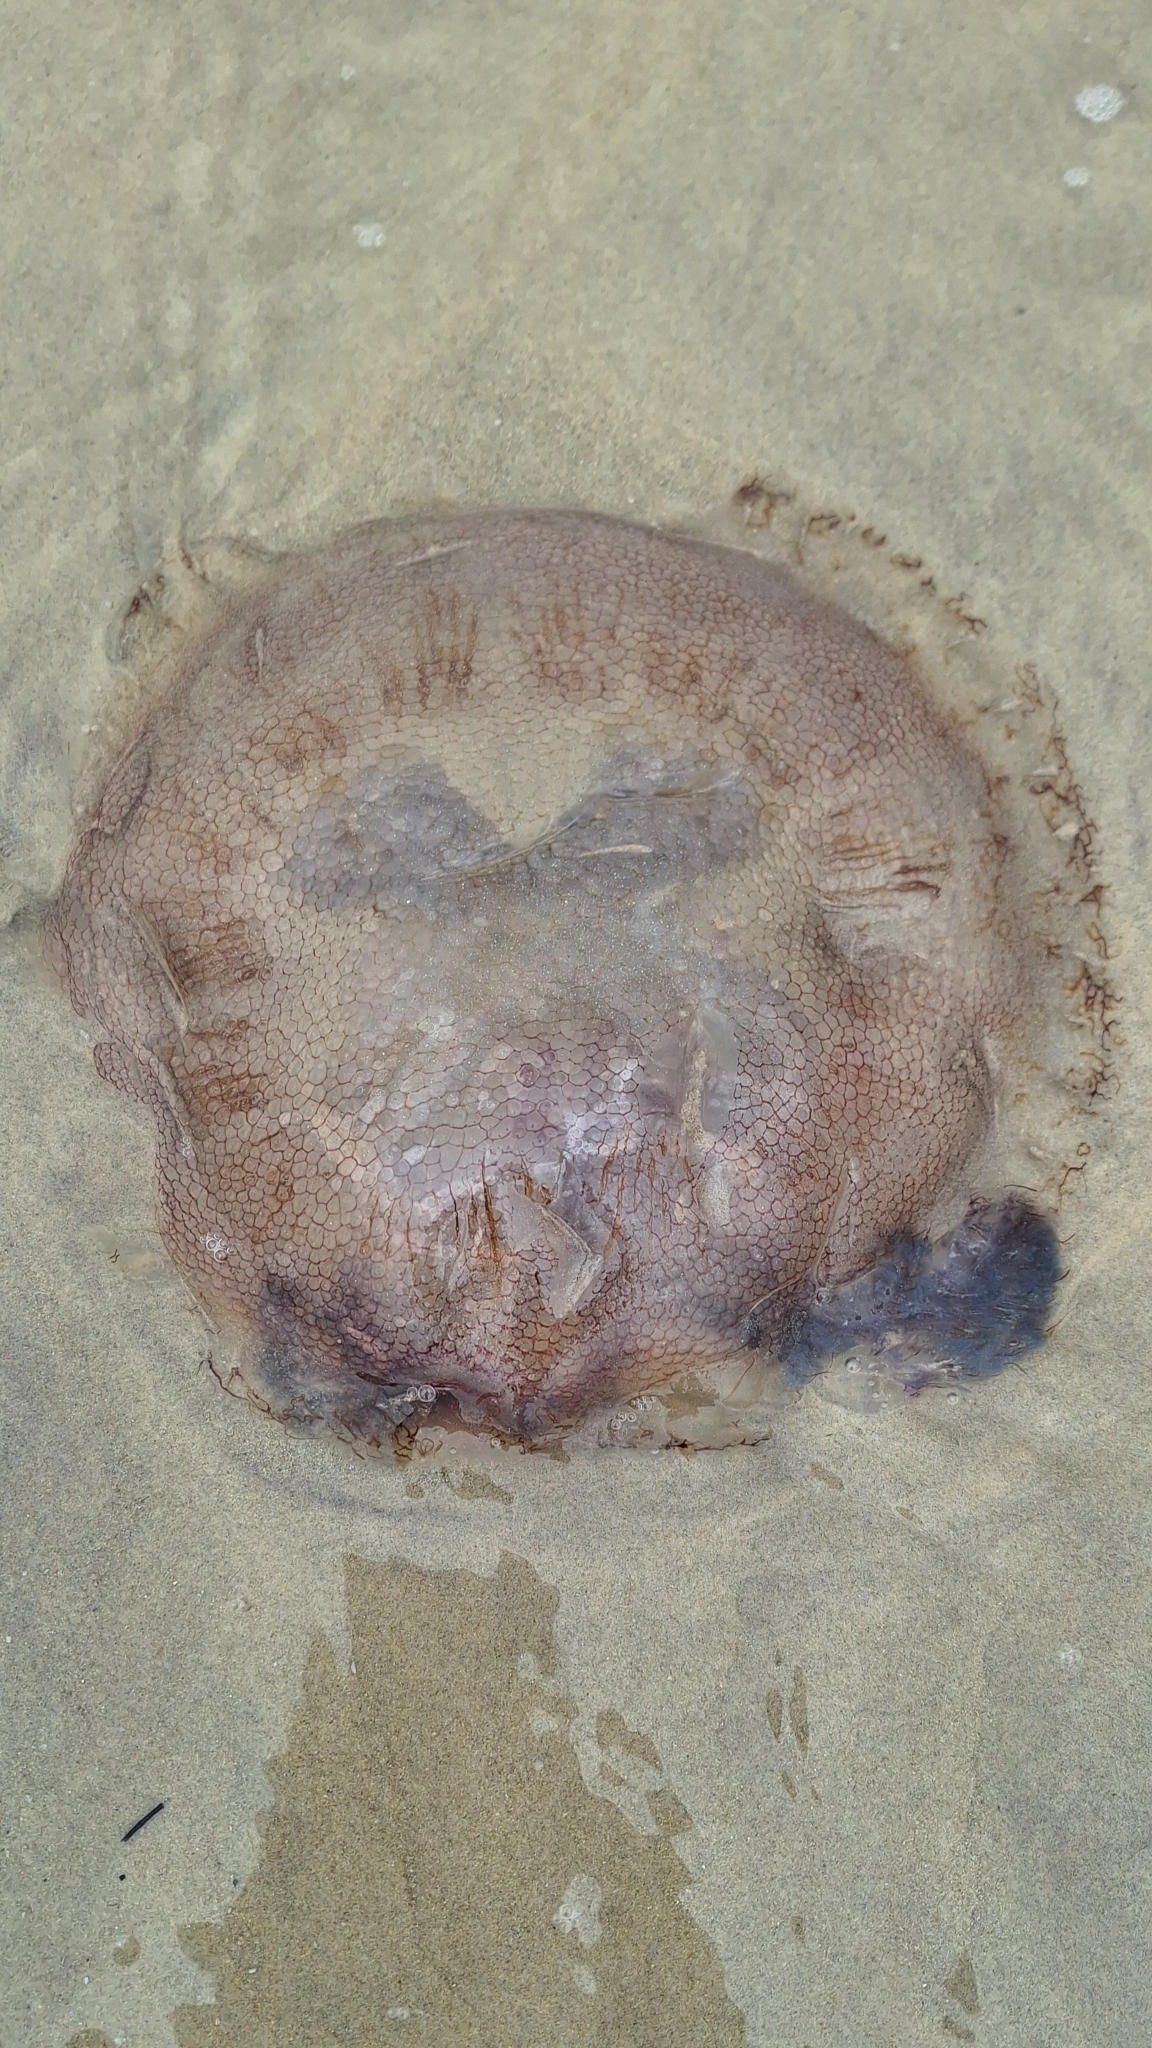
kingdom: Animalia
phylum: Cnidaria
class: Scyphozoa
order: Rhizostomeae
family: Lychnorhizidae
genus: Pseudorhiza
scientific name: Pseudorhiza haeckeli
